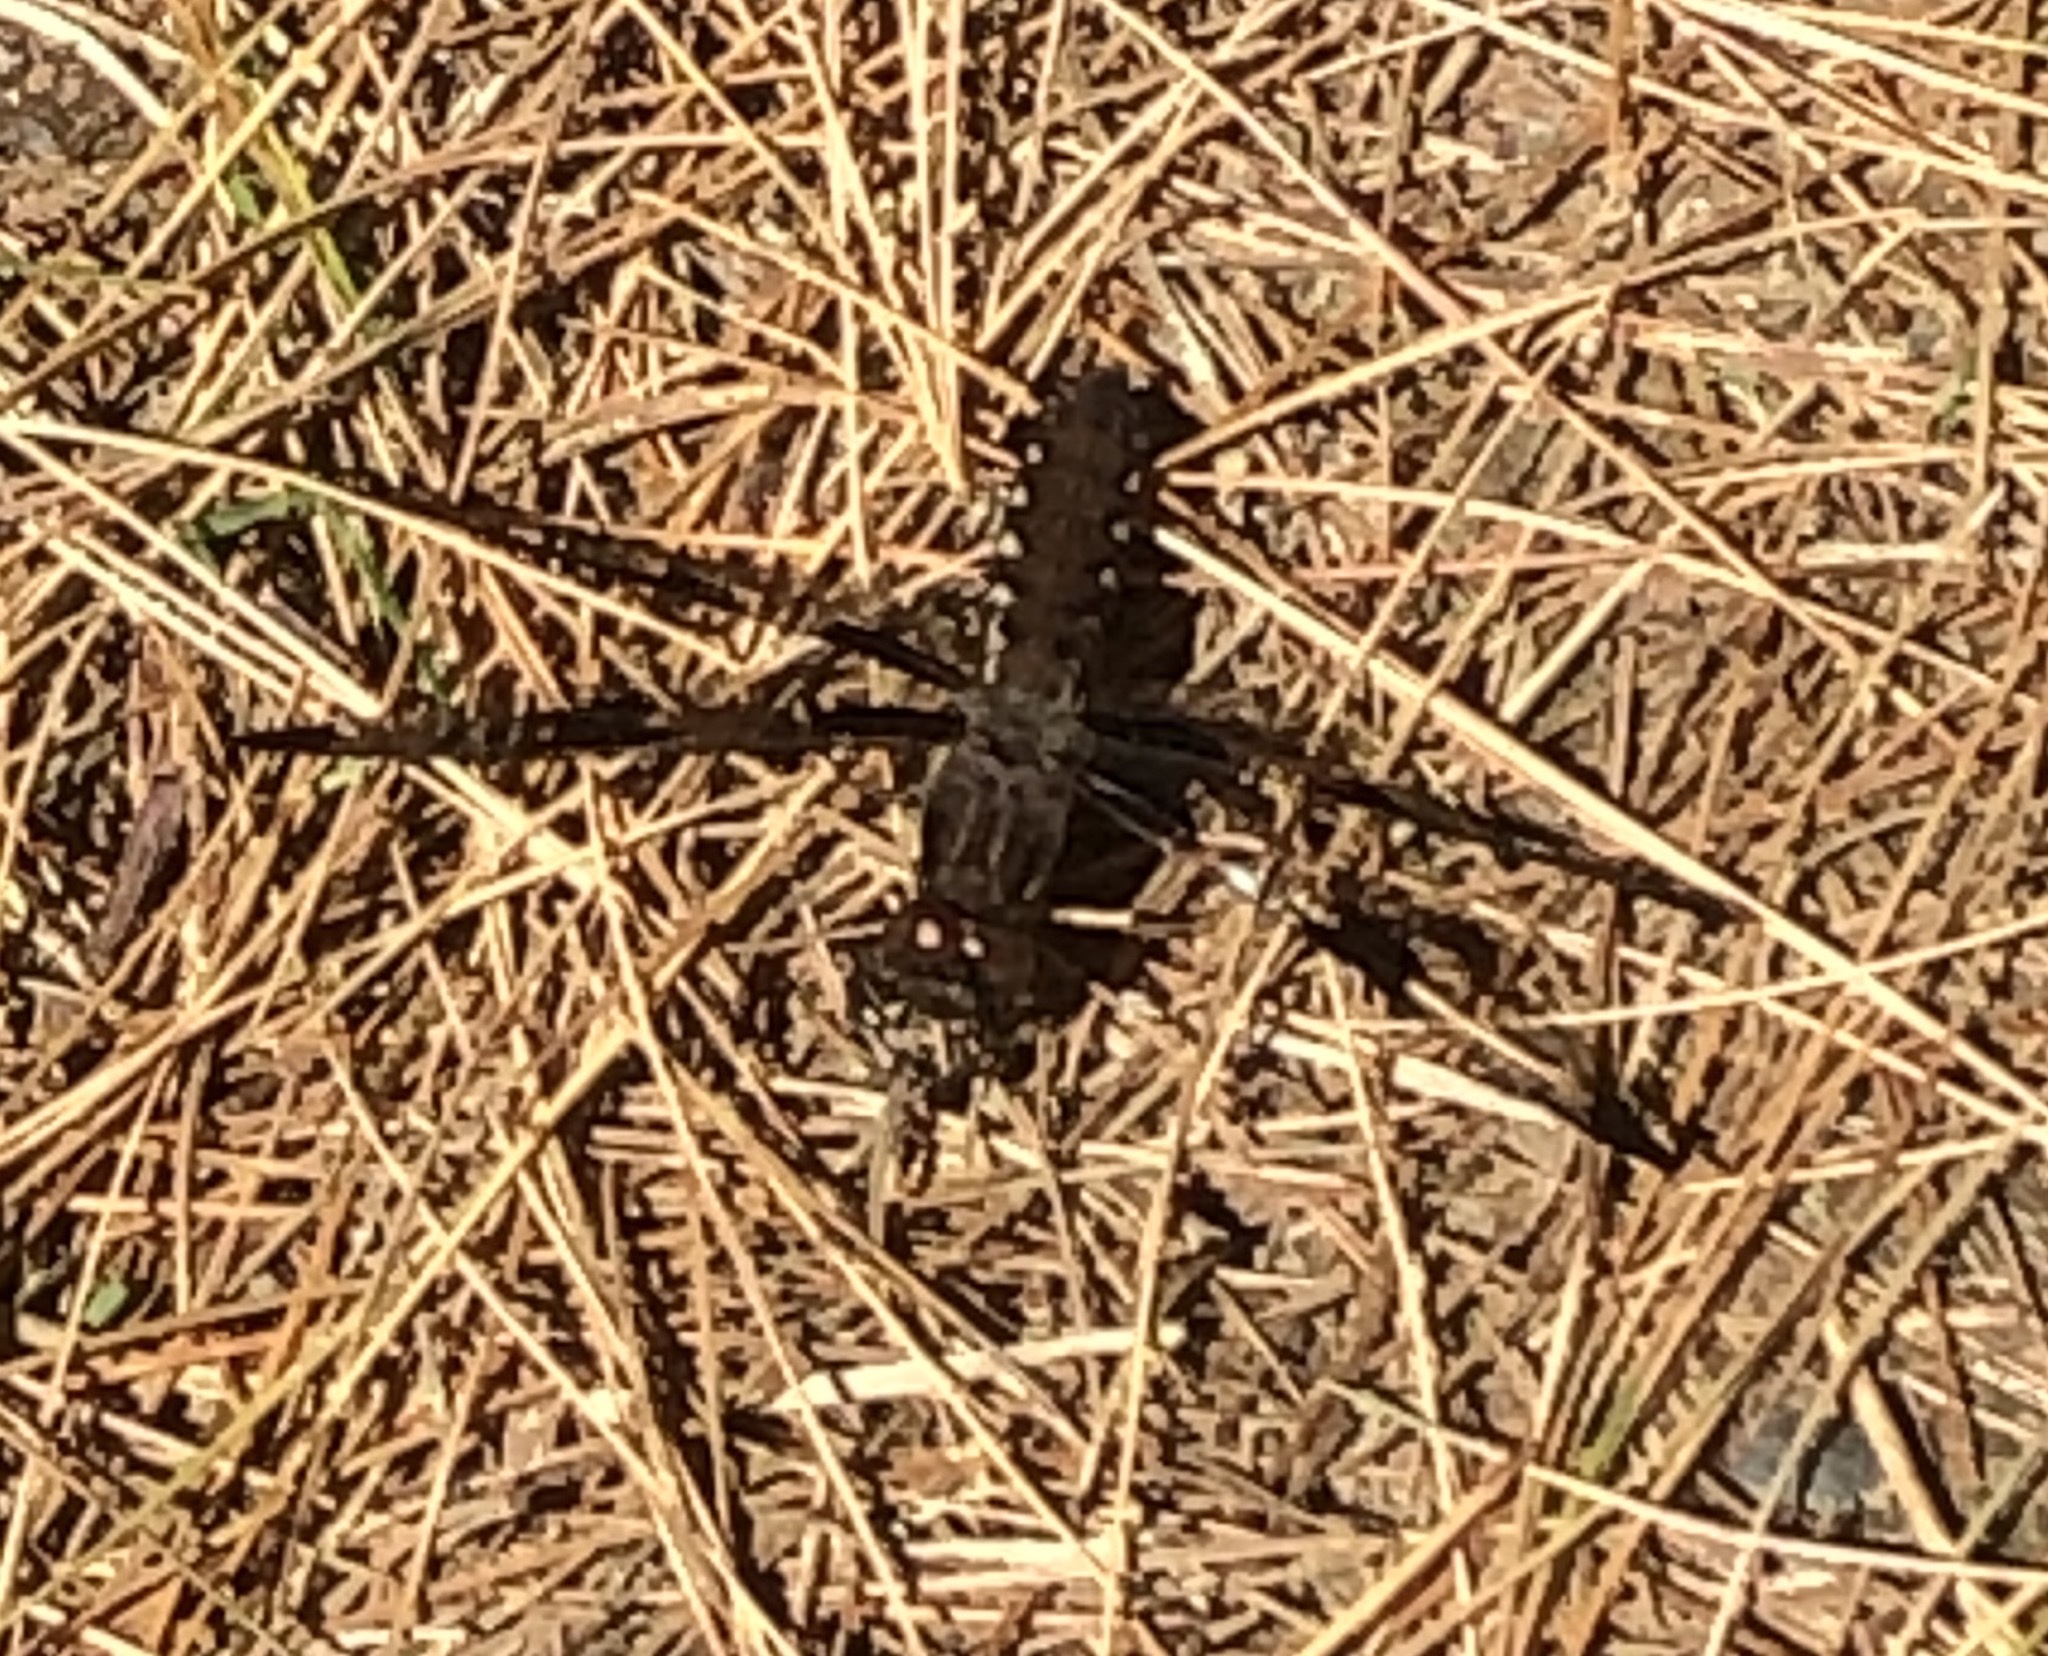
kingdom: Animalia
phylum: Arthropoda
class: Insecta
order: Odonata
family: Libellulidae
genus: Plathemis
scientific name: Plathemis lydia
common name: Common whitetail
